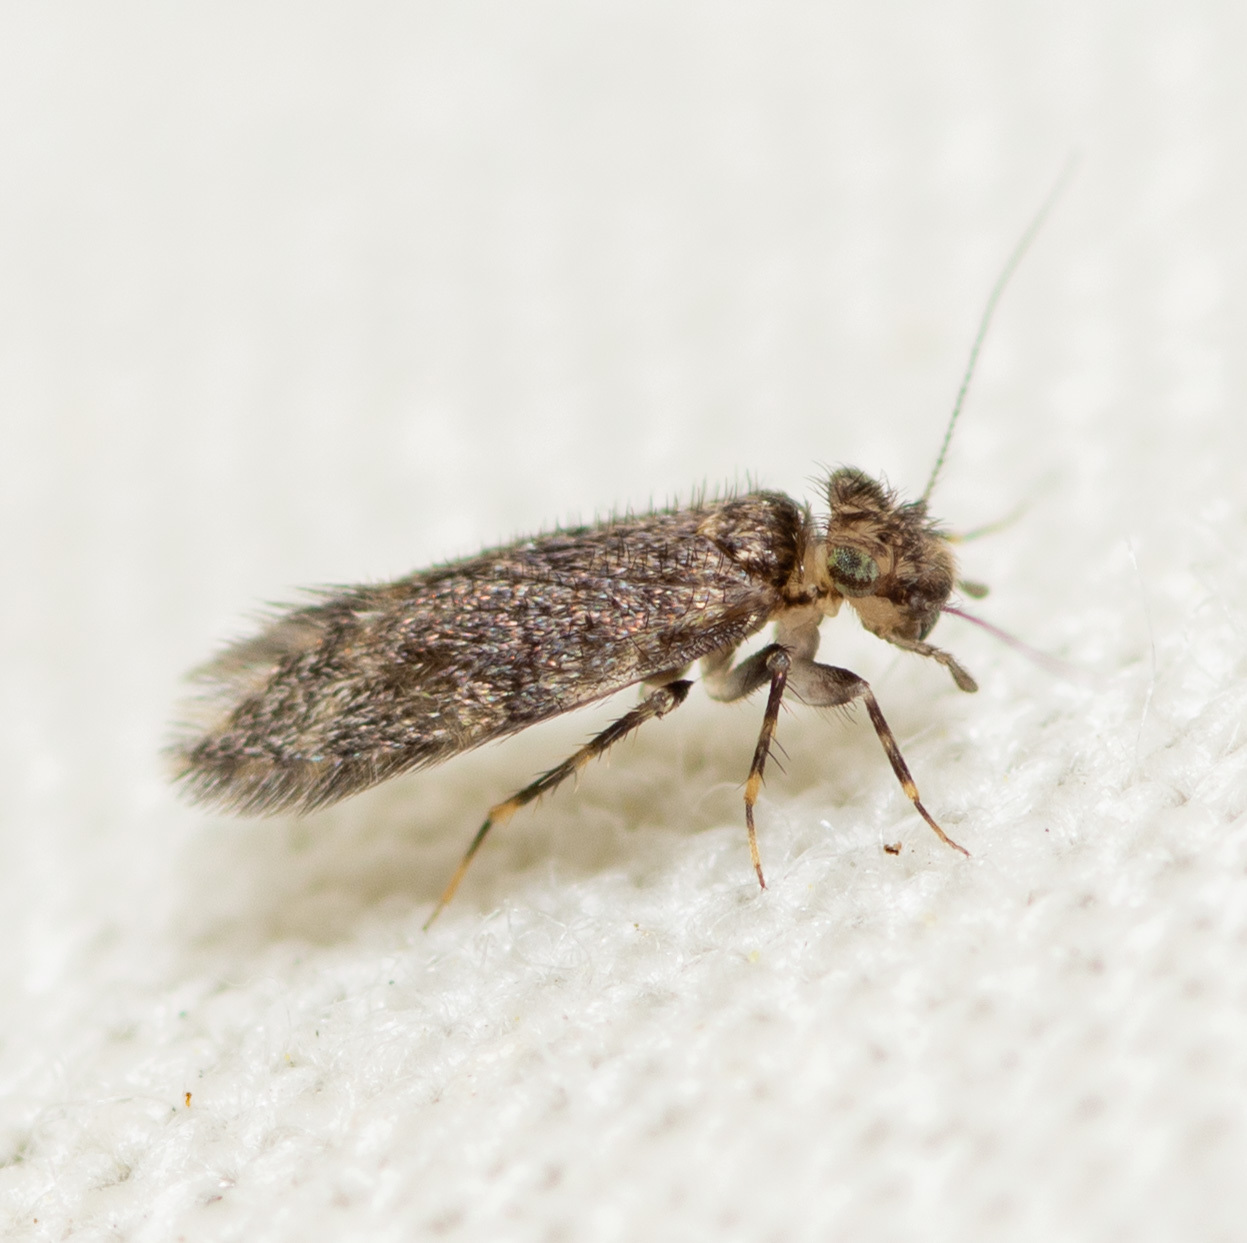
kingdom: Animalia
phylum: Arthropoda
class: Insecta
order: Psocodea
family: Lepidopsocidae
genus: Echmepteryx
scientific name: Echmepteryx hageni
